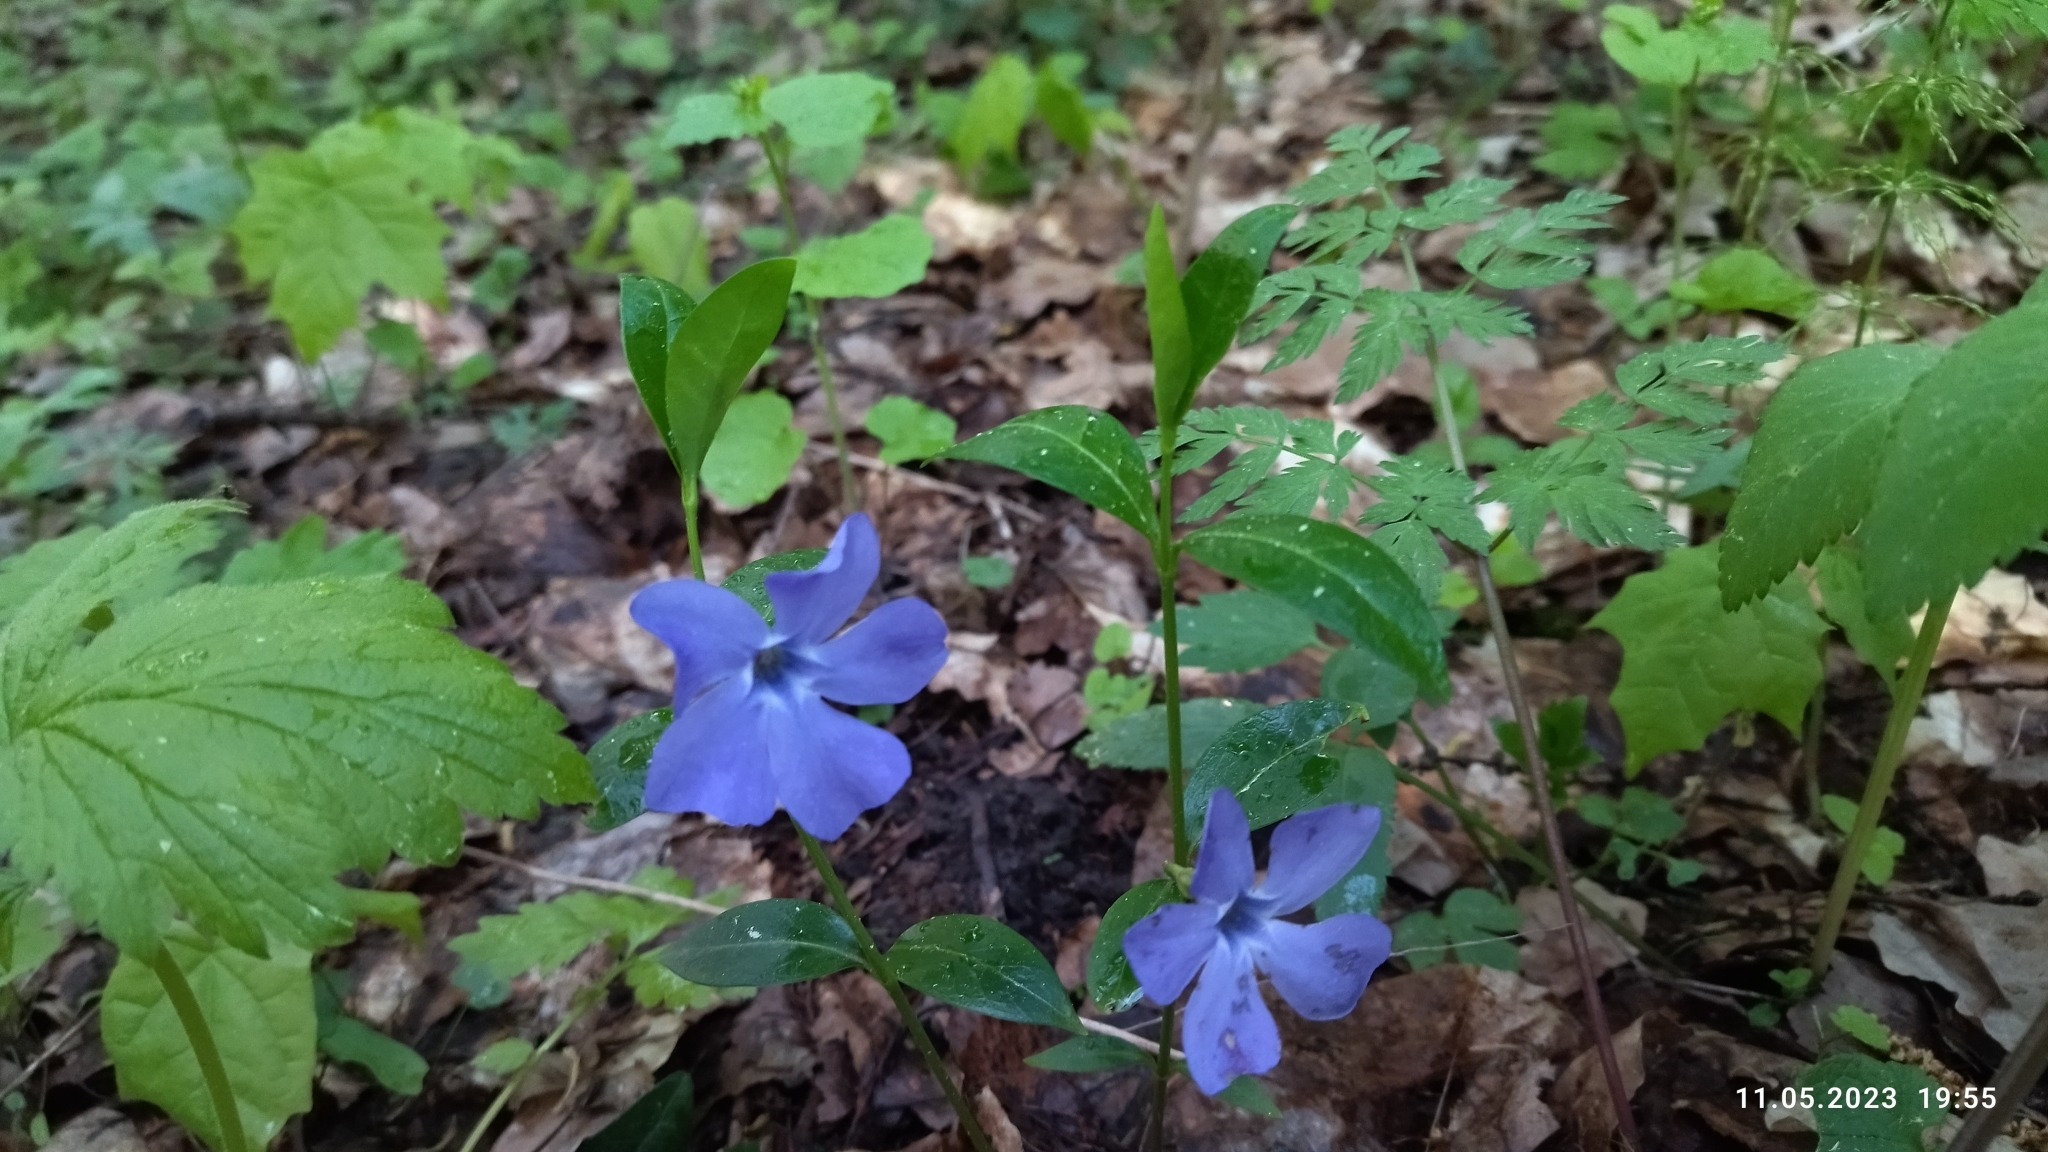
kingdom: Plantae
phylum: Tracheophyta
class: Magnoliopsida
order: Gentianales
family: Apocynaceae
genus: Vinca
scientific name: Vinca minor
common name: Lesser periwinkle
